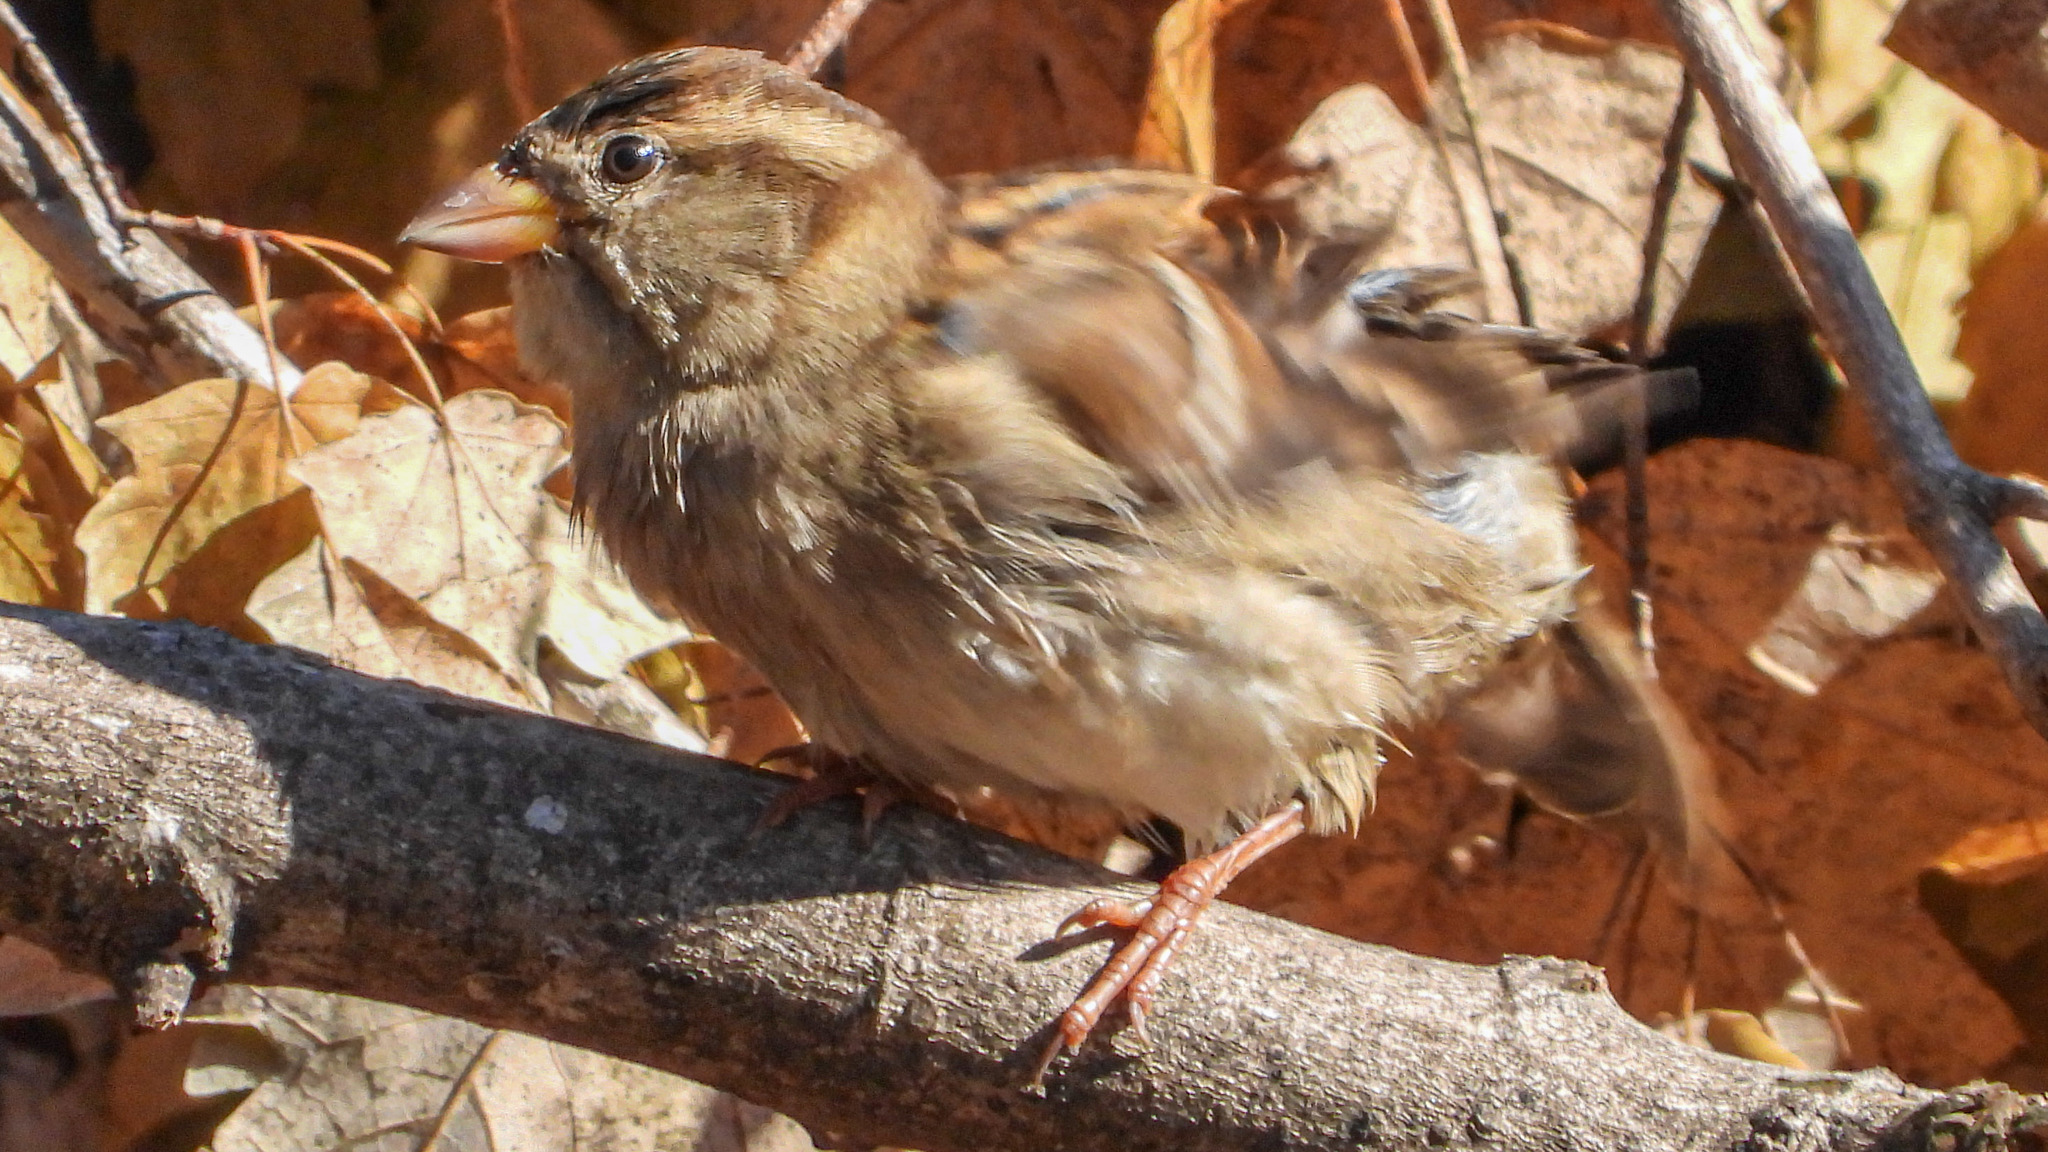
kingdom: Animalia
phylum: Chordata
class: Aves
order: Passeriformes
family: Passeridae
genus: Passer
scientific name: Passer domesticus
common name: House sparrow
